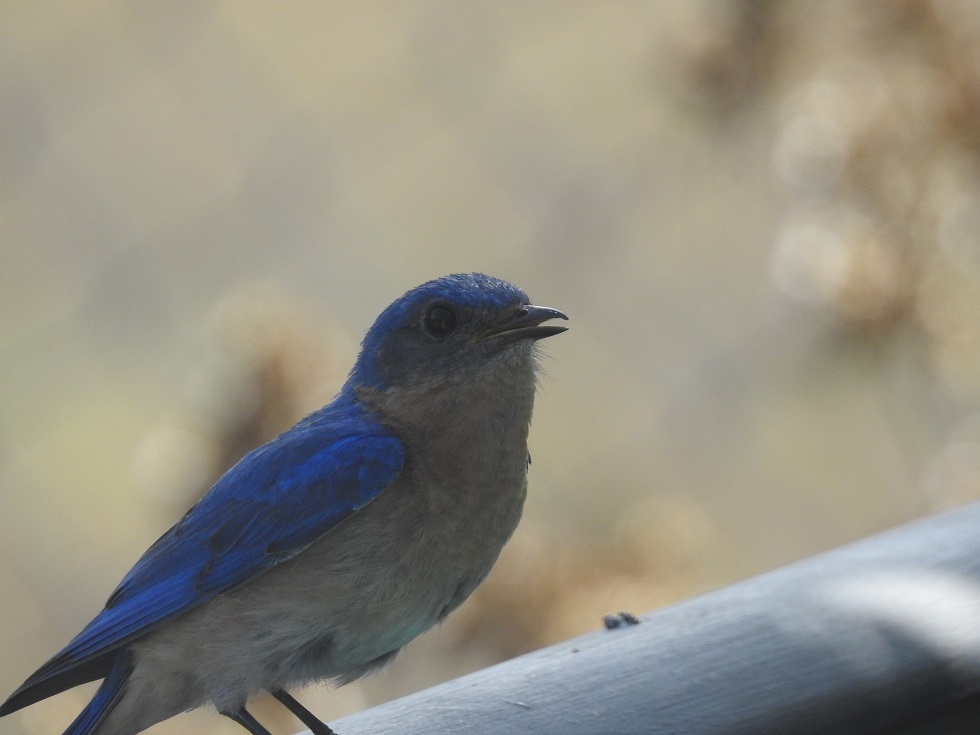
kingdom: Animalia
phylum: Chordata
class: Aves
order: Passeriformes
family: Turdidae
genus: Sialia
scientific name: Sialia sialis
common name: Eastern bluebird
